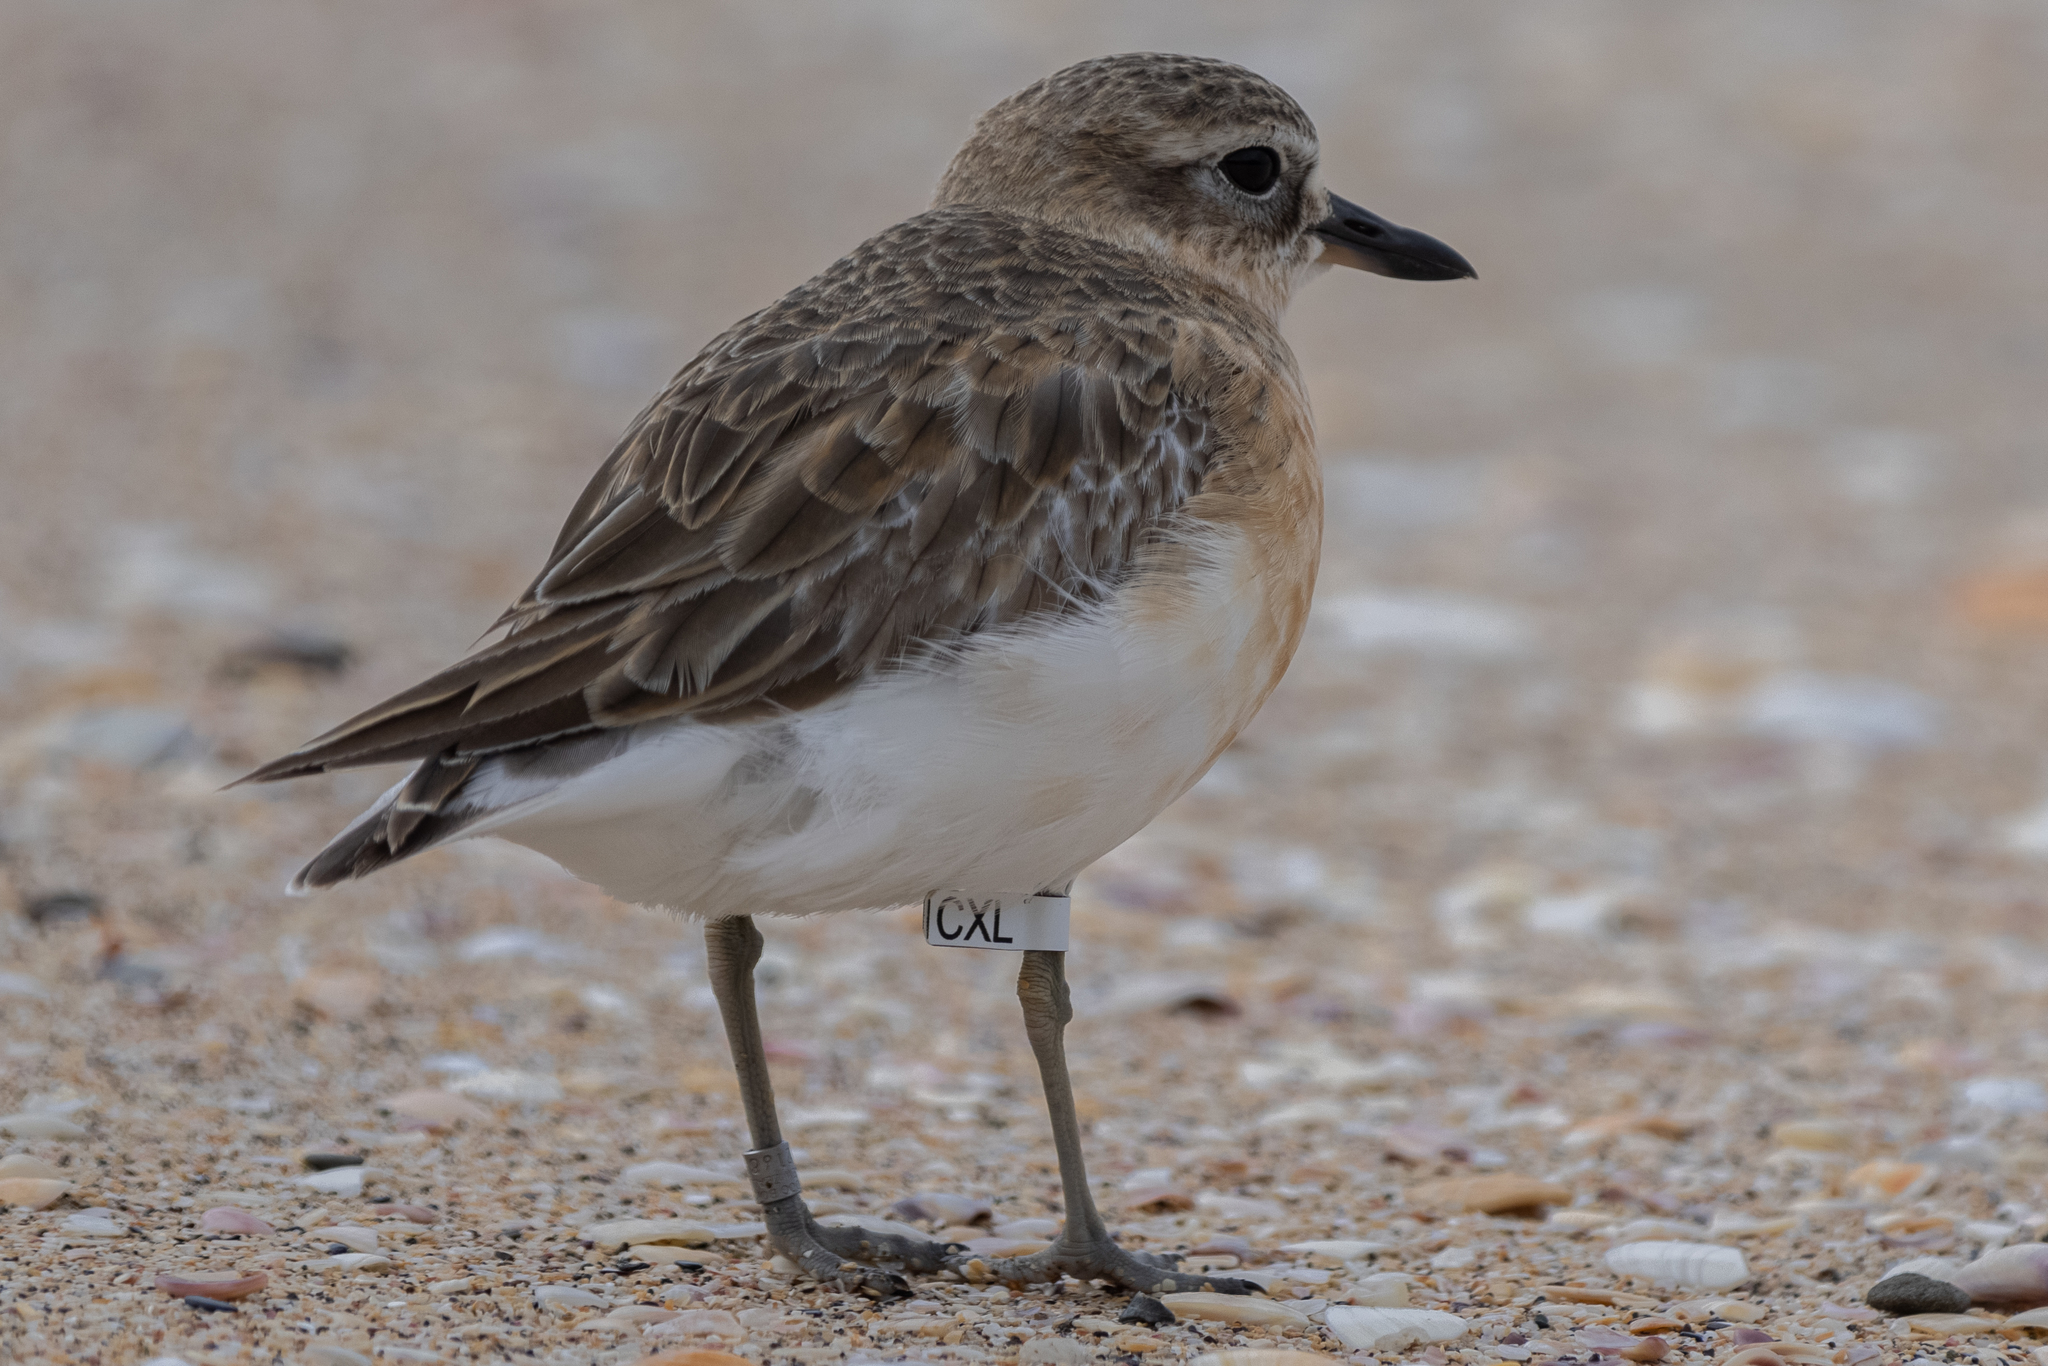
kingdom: Animalia
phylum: Chordata
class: Aves
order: Charadriiformes
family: Charadriidae
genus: Anarhynchus
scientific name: Anarhynchus
